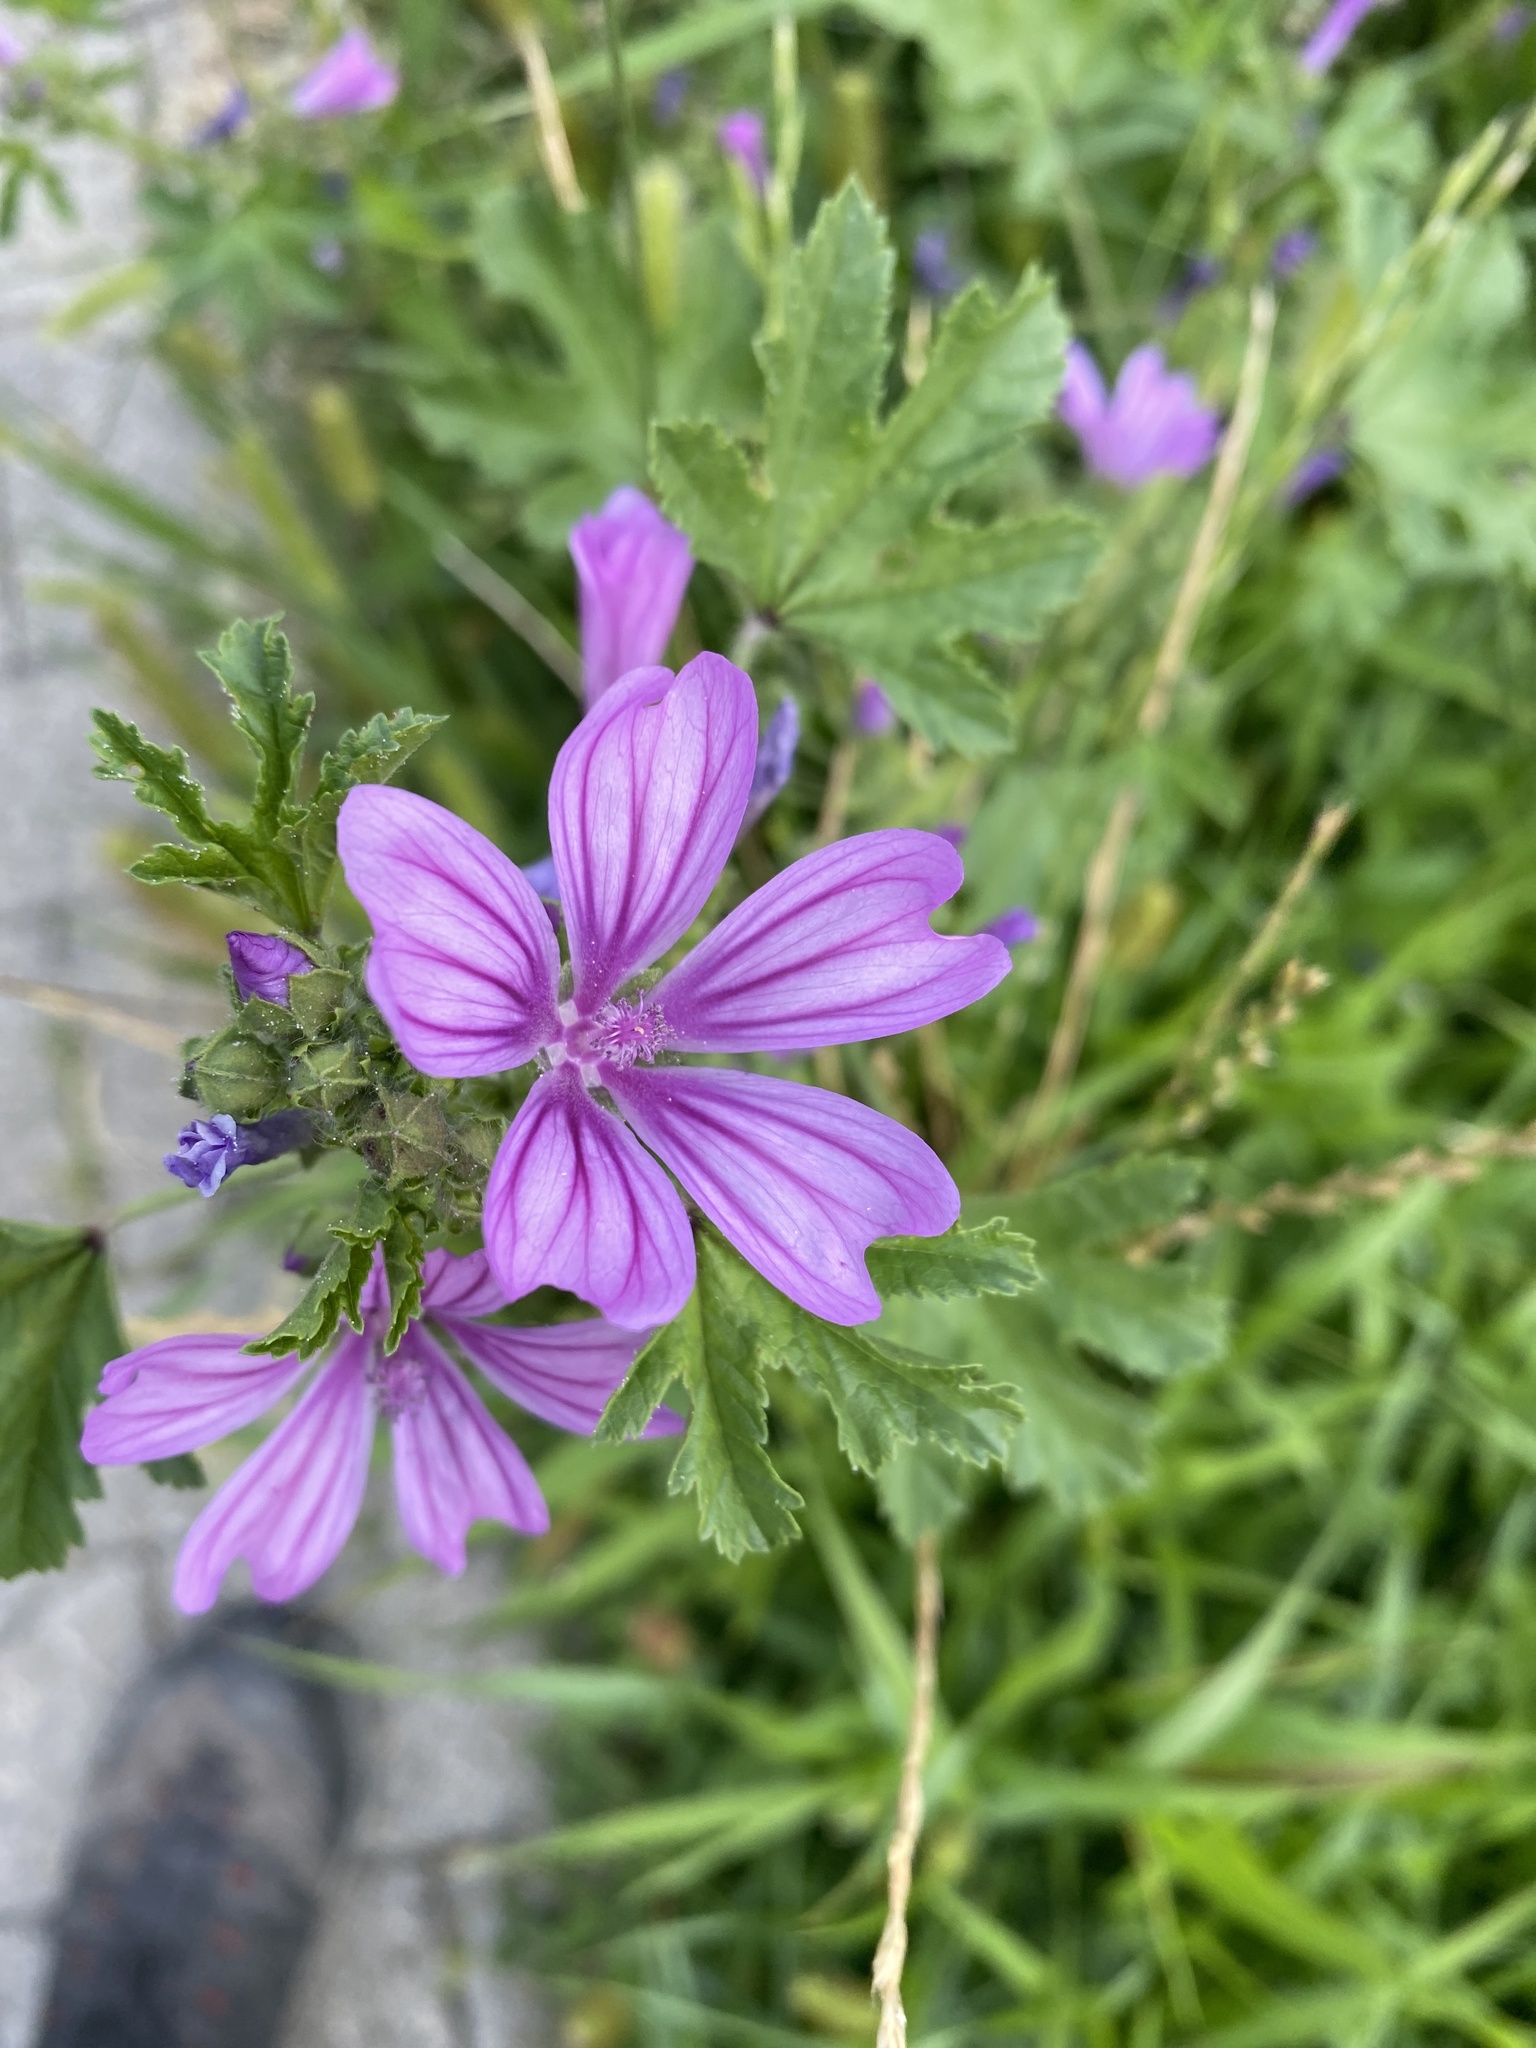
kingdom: Plantae
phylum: Tracheophyta
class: Magnoliopsida
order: Malvales
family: Malvaceae
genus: Malva
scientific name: Malva sylvestris
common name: Common mallow
